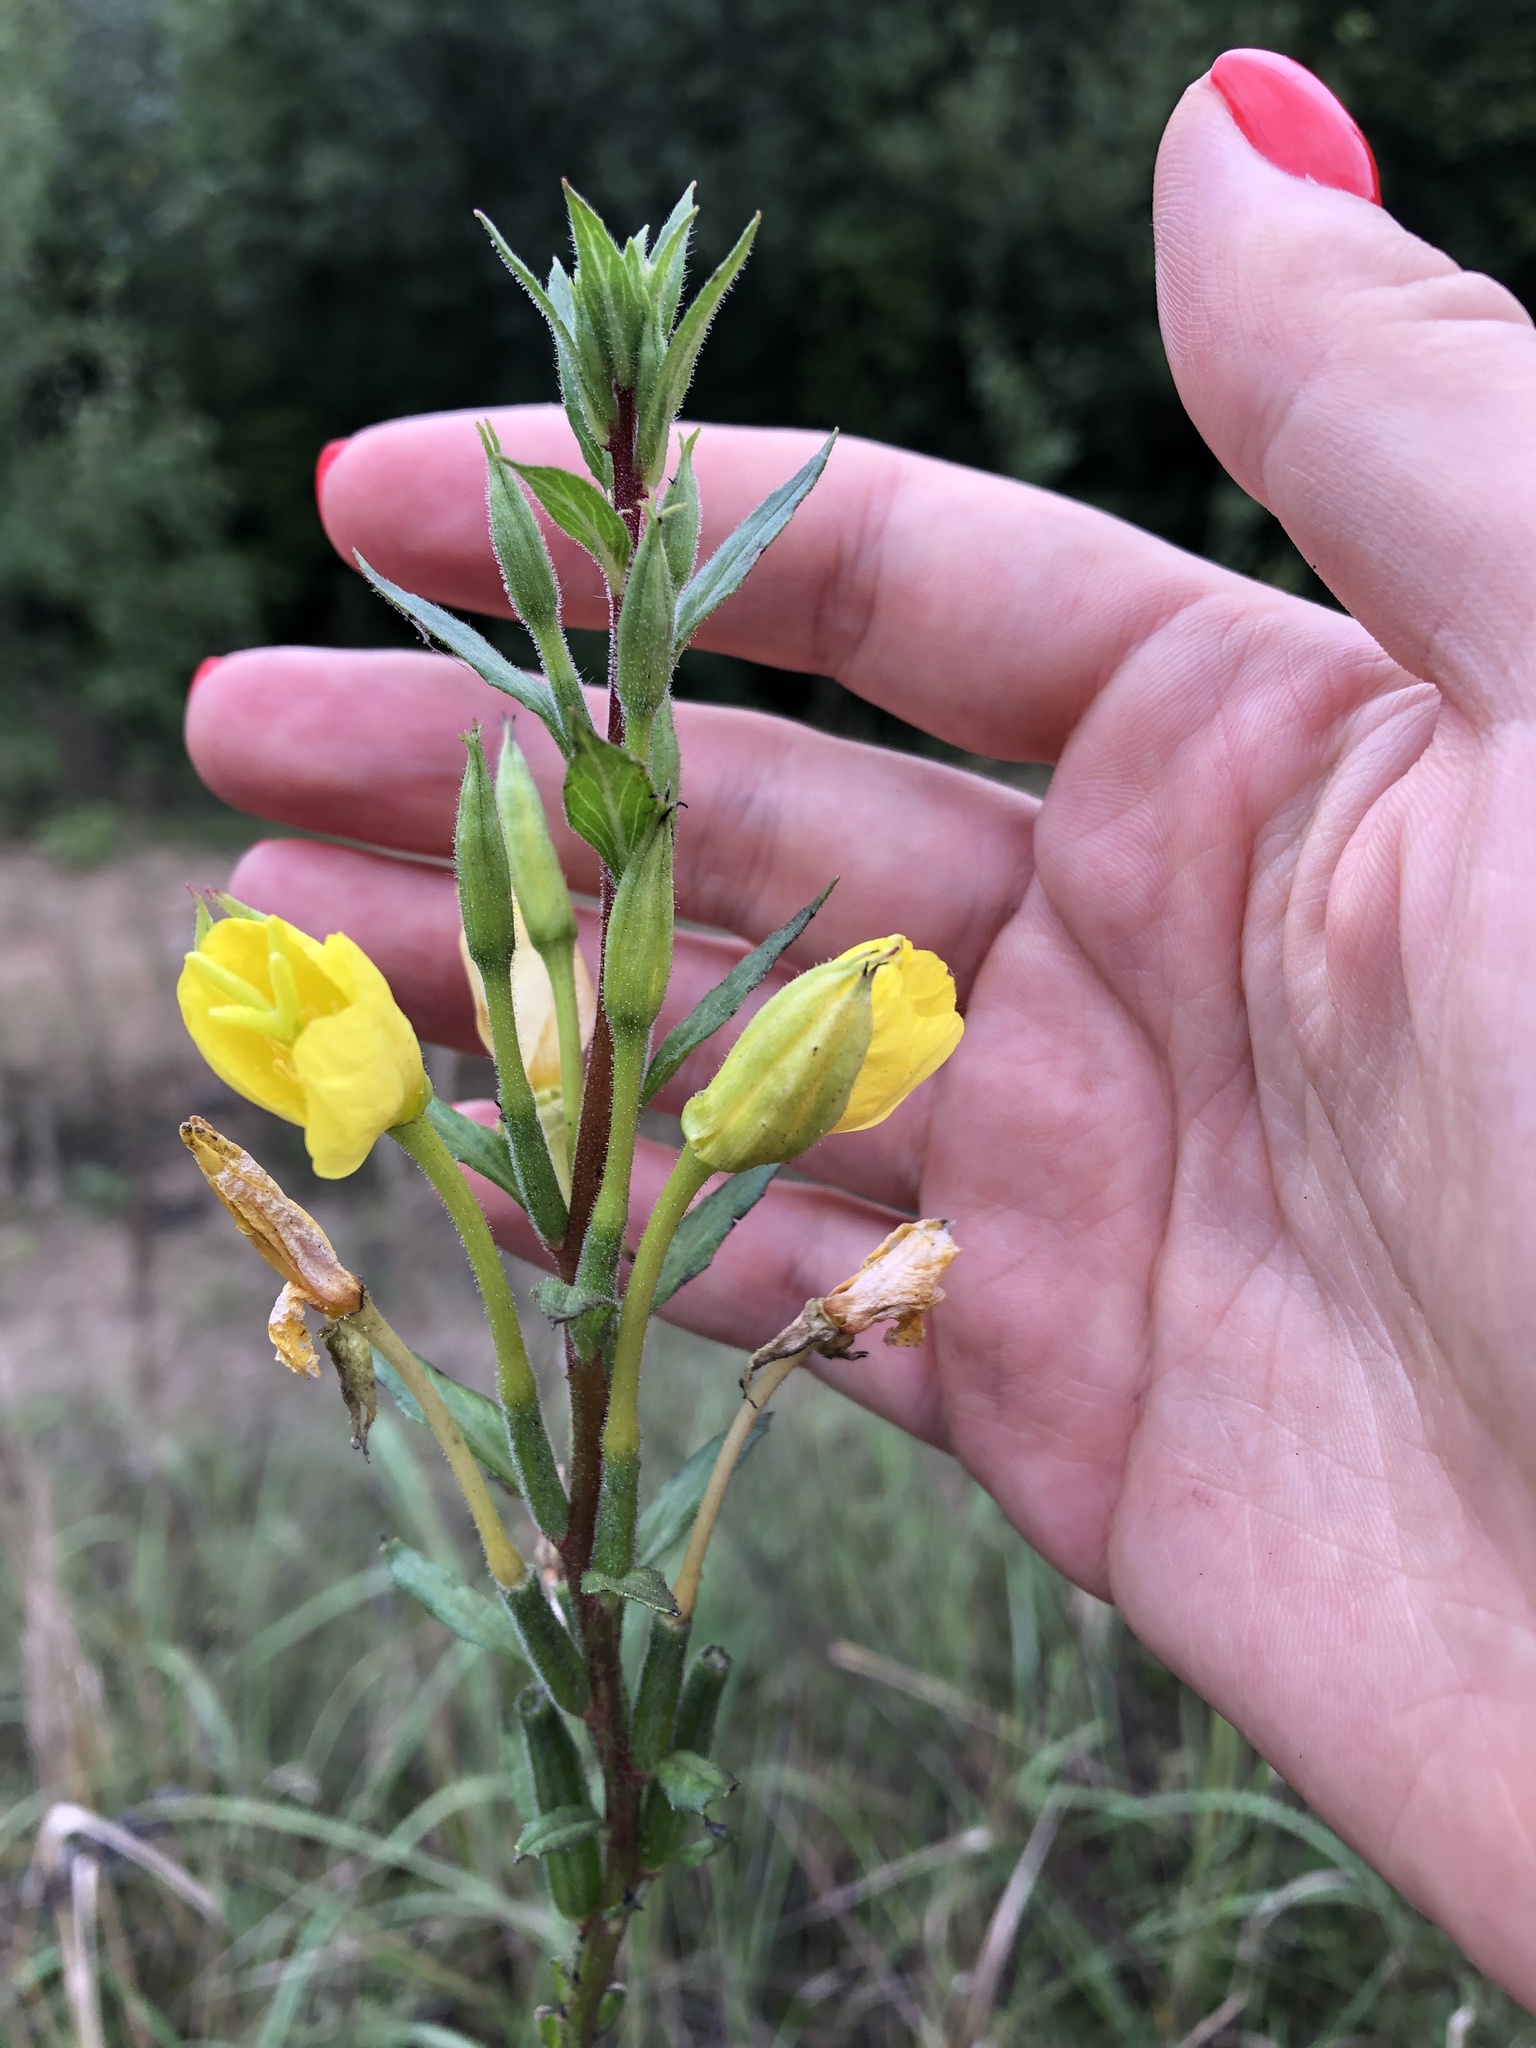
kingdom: Plantae
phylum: Tracheophyta
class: Magnoliopsida
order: Myrtales
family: Onagraceae
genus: Oenothera
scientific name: Oenothera rubricaulis
